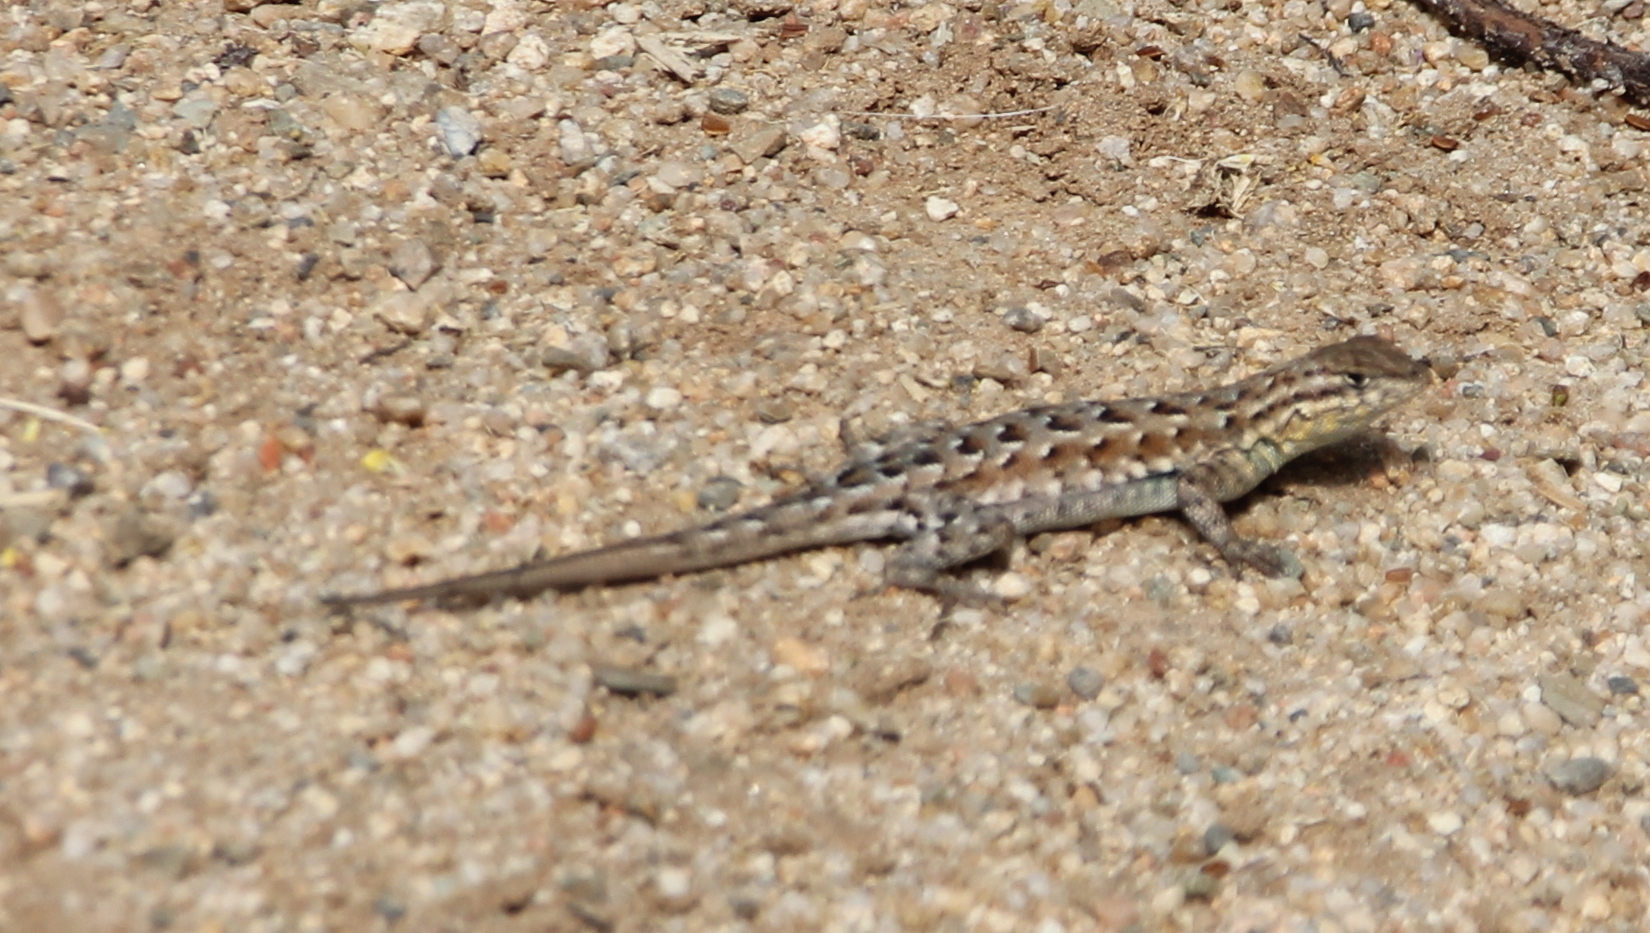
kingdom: Animalia
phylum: Chordata
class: Squamata
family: Phrynosomatidae
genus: Uta
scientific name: Uta stansburiana
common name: Side-blotched lizard
